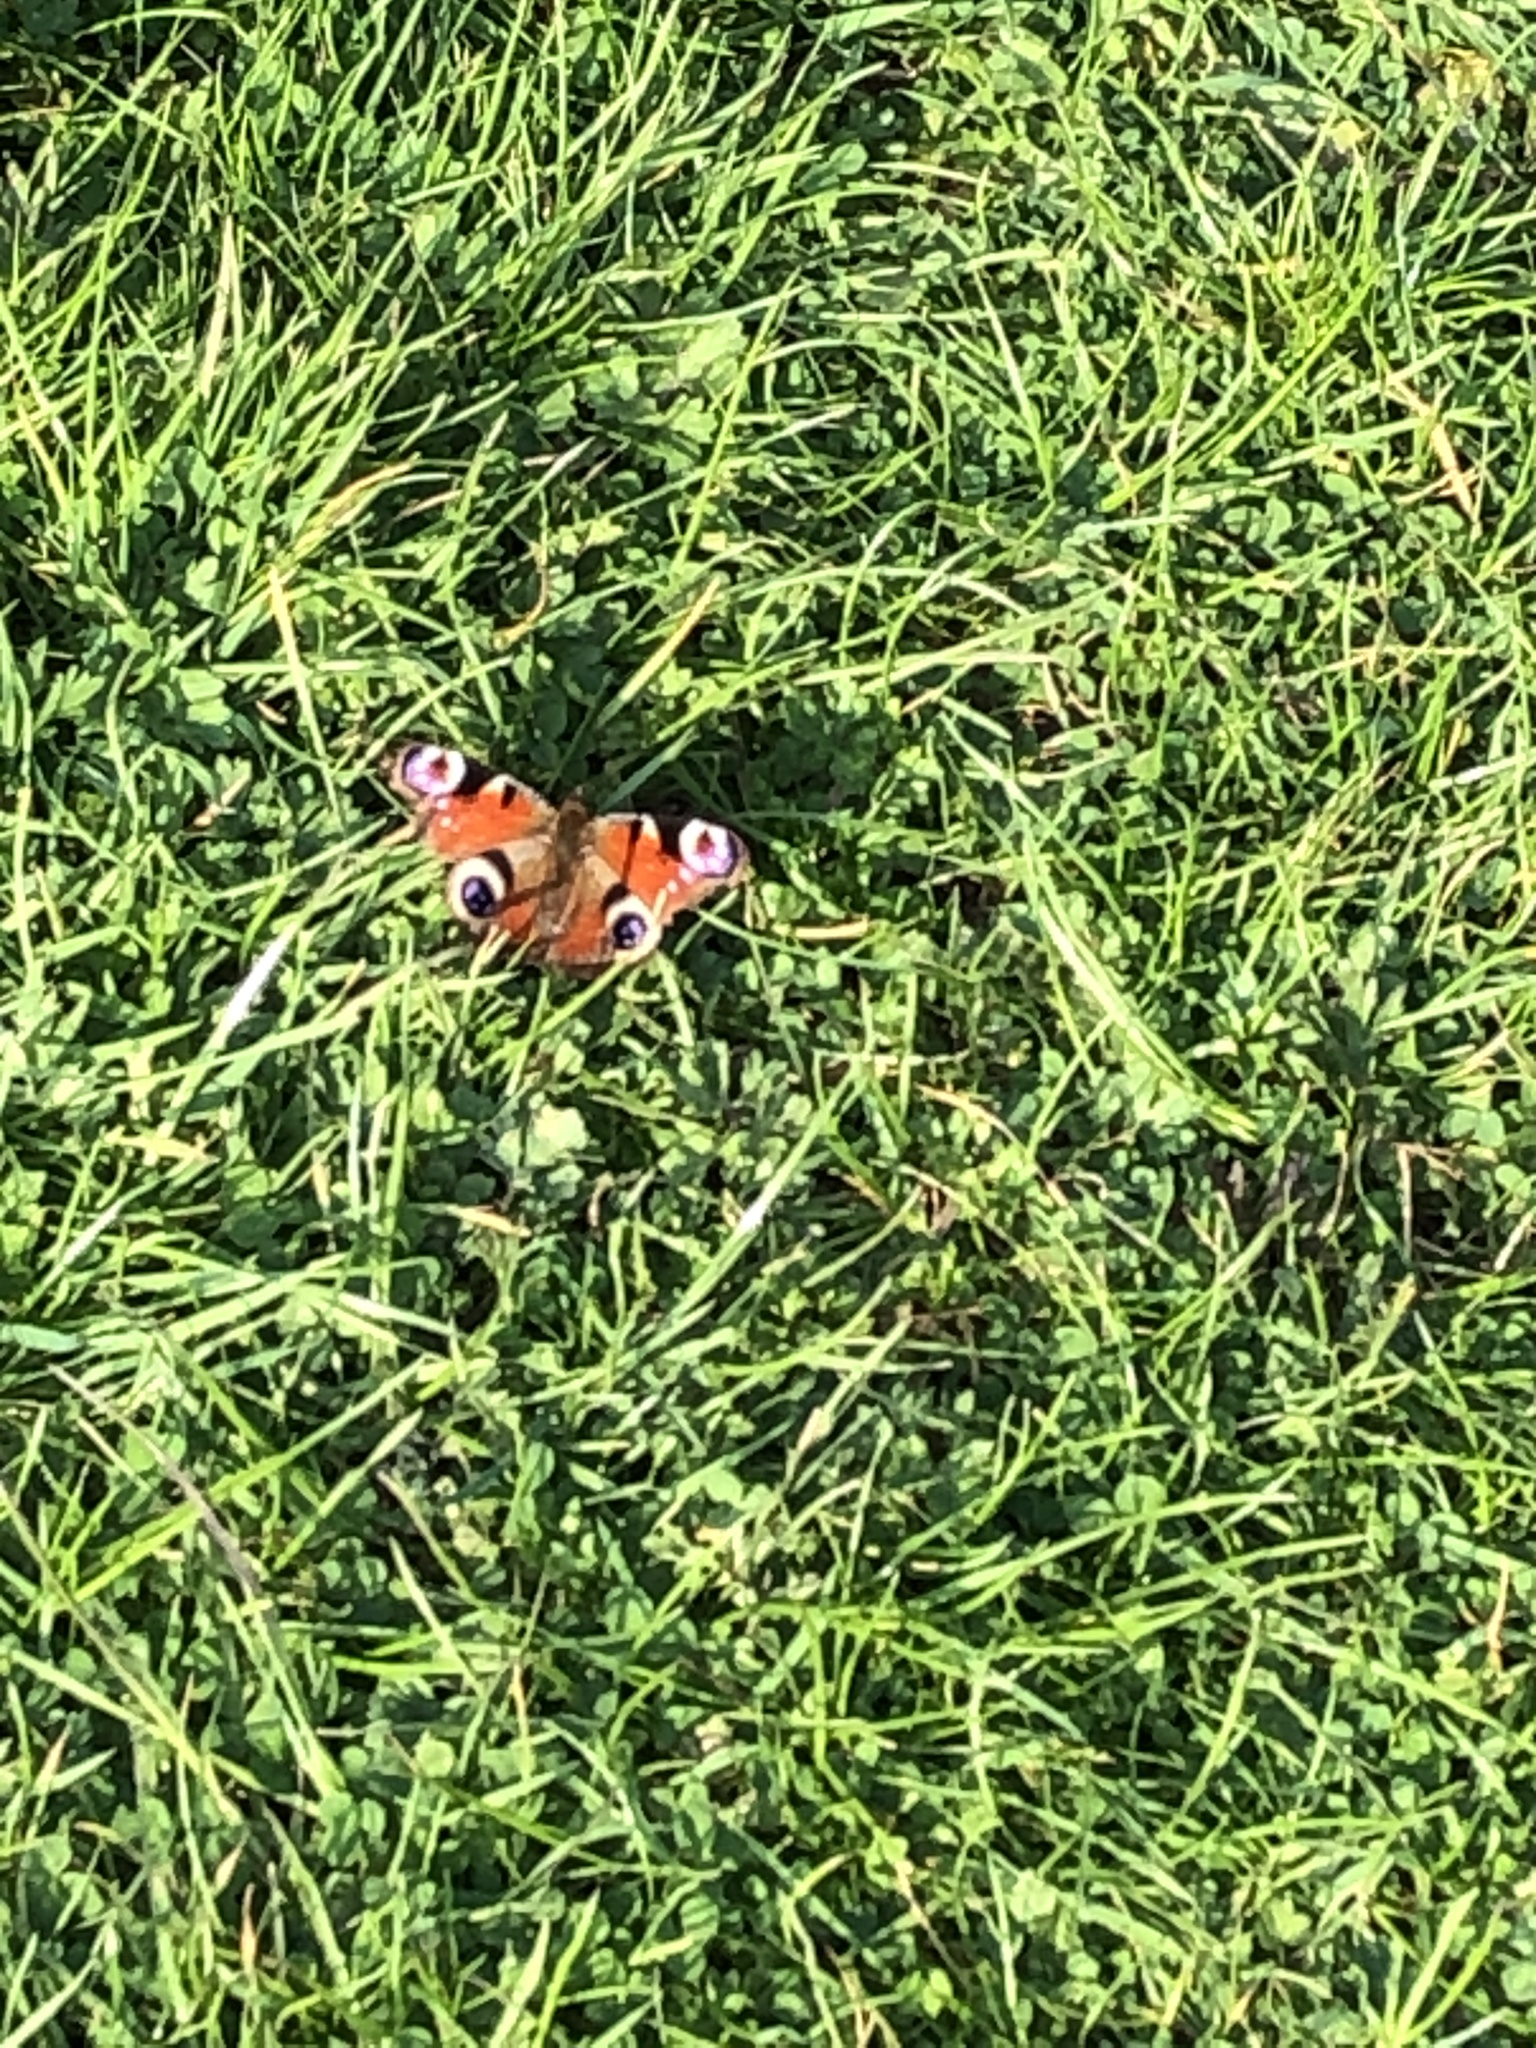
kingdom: Animalia
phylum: Arthropoda
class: Insecta
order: Lepidoptera
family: Nymphalidae
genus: Aglais
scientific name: Aglais io
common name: Peacock
